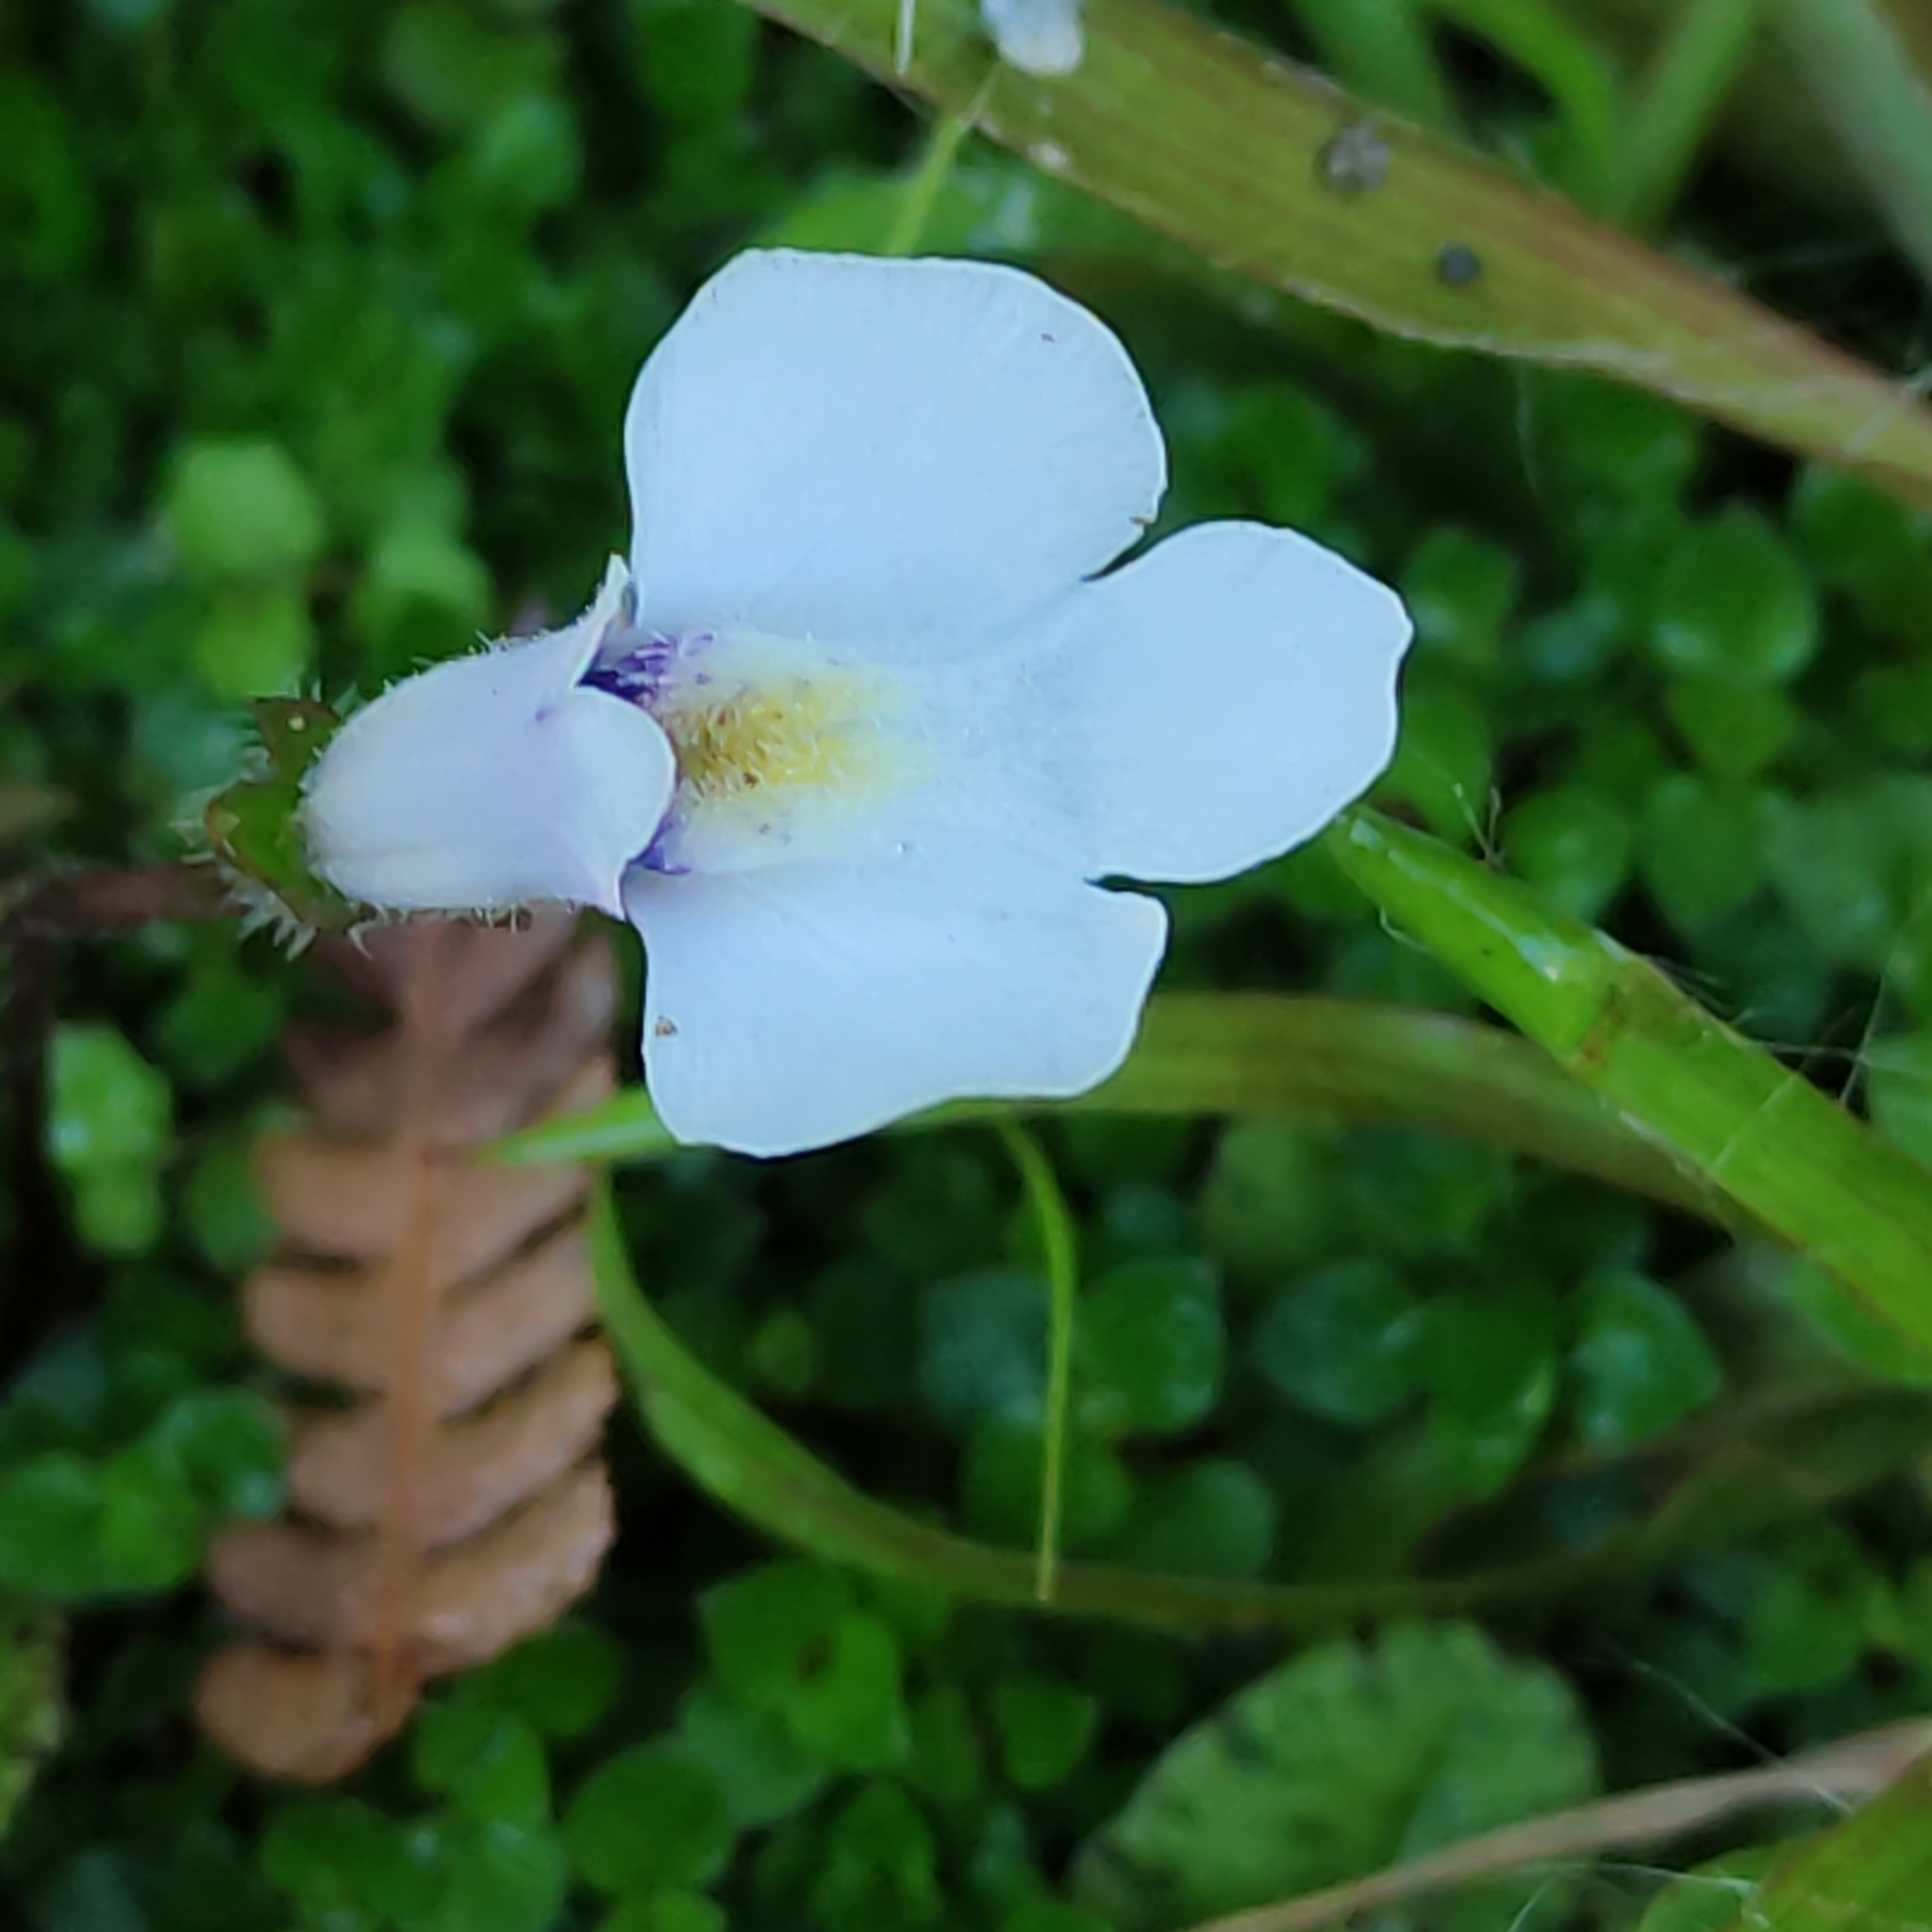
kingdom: Plantae
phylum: Tracheophyta
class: Magnoliopsida
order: Lamiales
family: Mazaceae
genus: Mazus
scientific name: Mazus radicans
